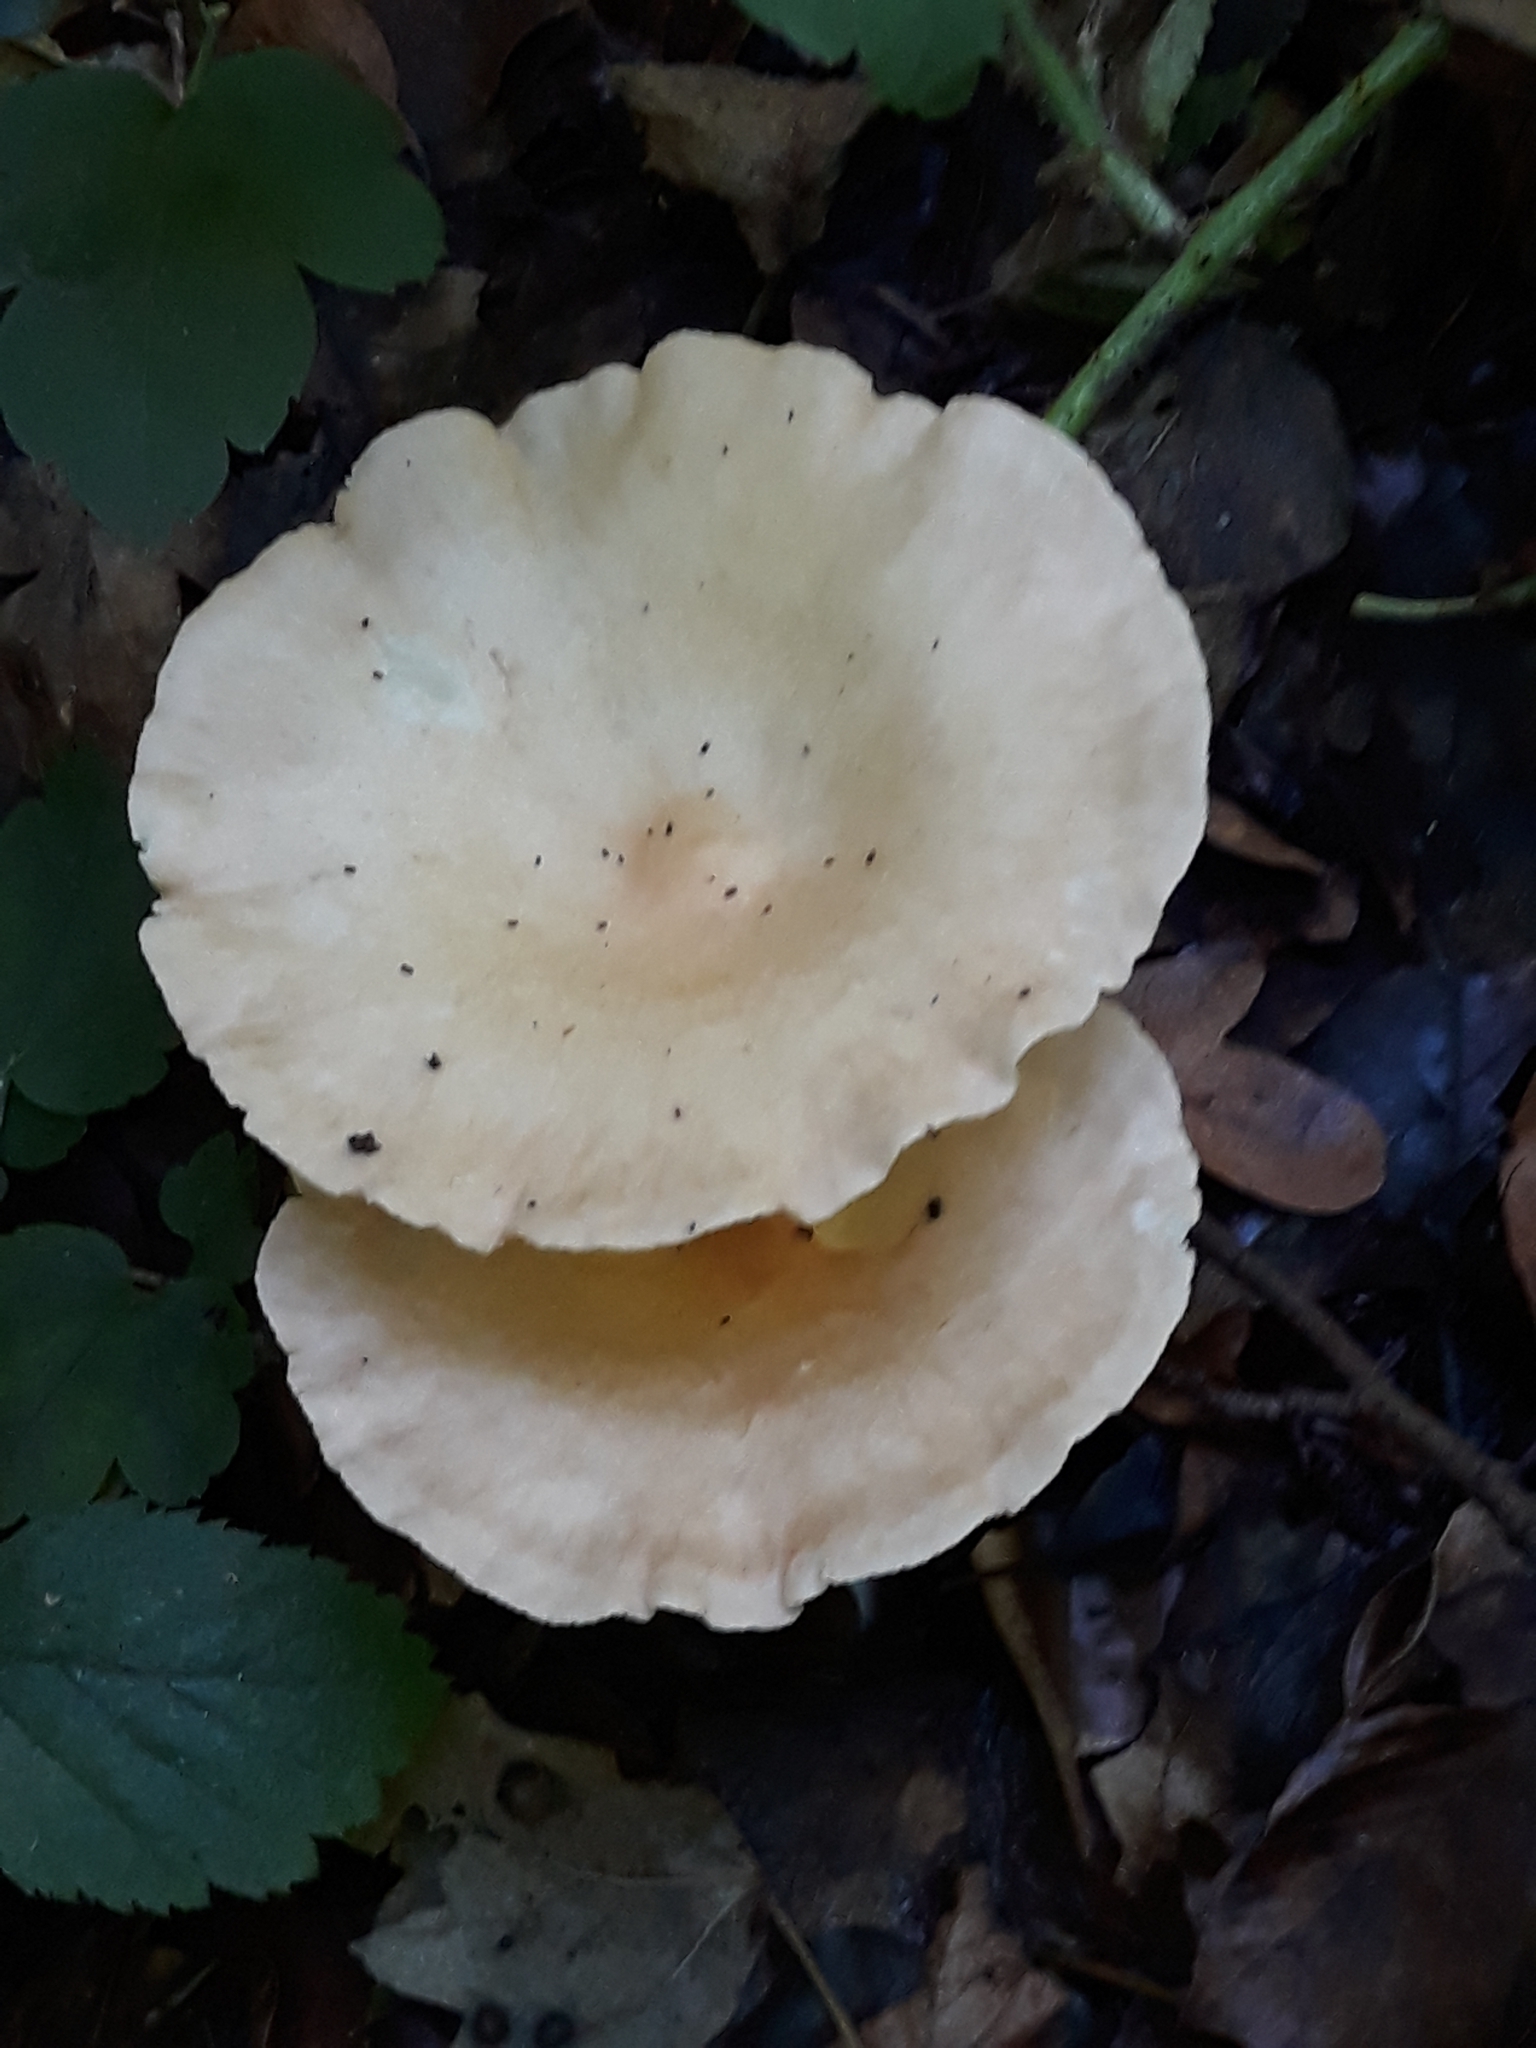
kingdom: Fungi
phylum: Basidiomycota
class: Agaricomycetes
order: Agaricales
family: Tricholomataceae
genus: Infundibulicybe
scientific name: Infundibulicybe gibba
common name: Common funnel
